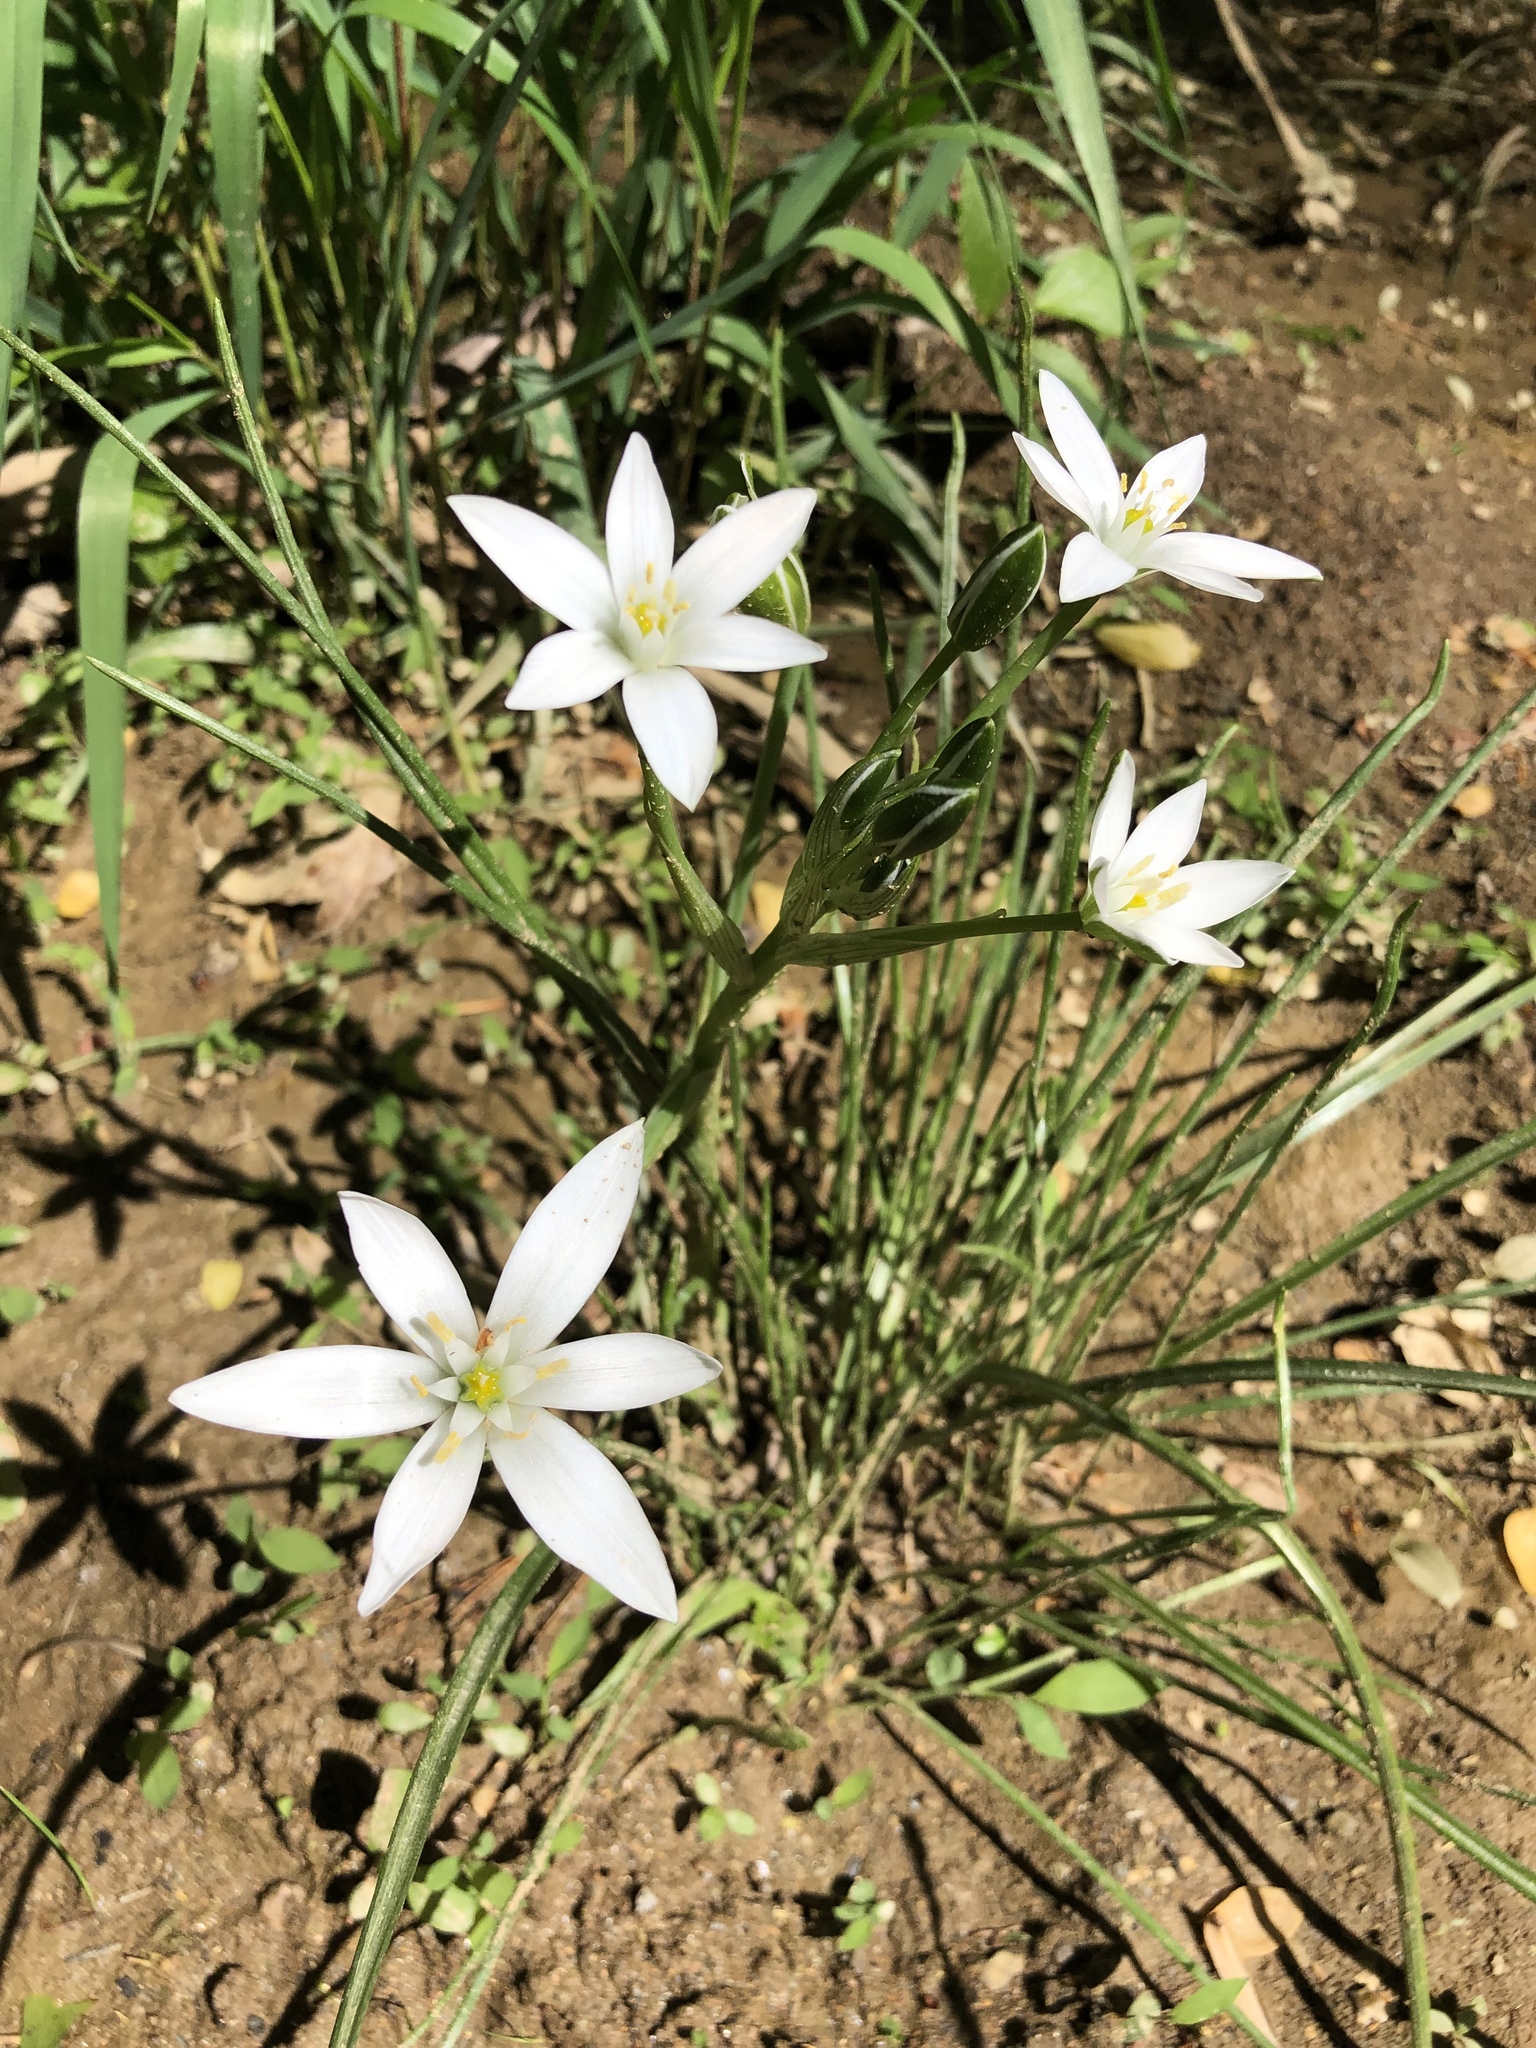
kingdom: Plantae
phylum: Tracheophyta
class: Liliopsida
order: Asparagales
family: Asparagaceae
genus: Ornithogalum
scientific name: Ornithogalum umbellatum
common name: Garden star-of-bethlehem
